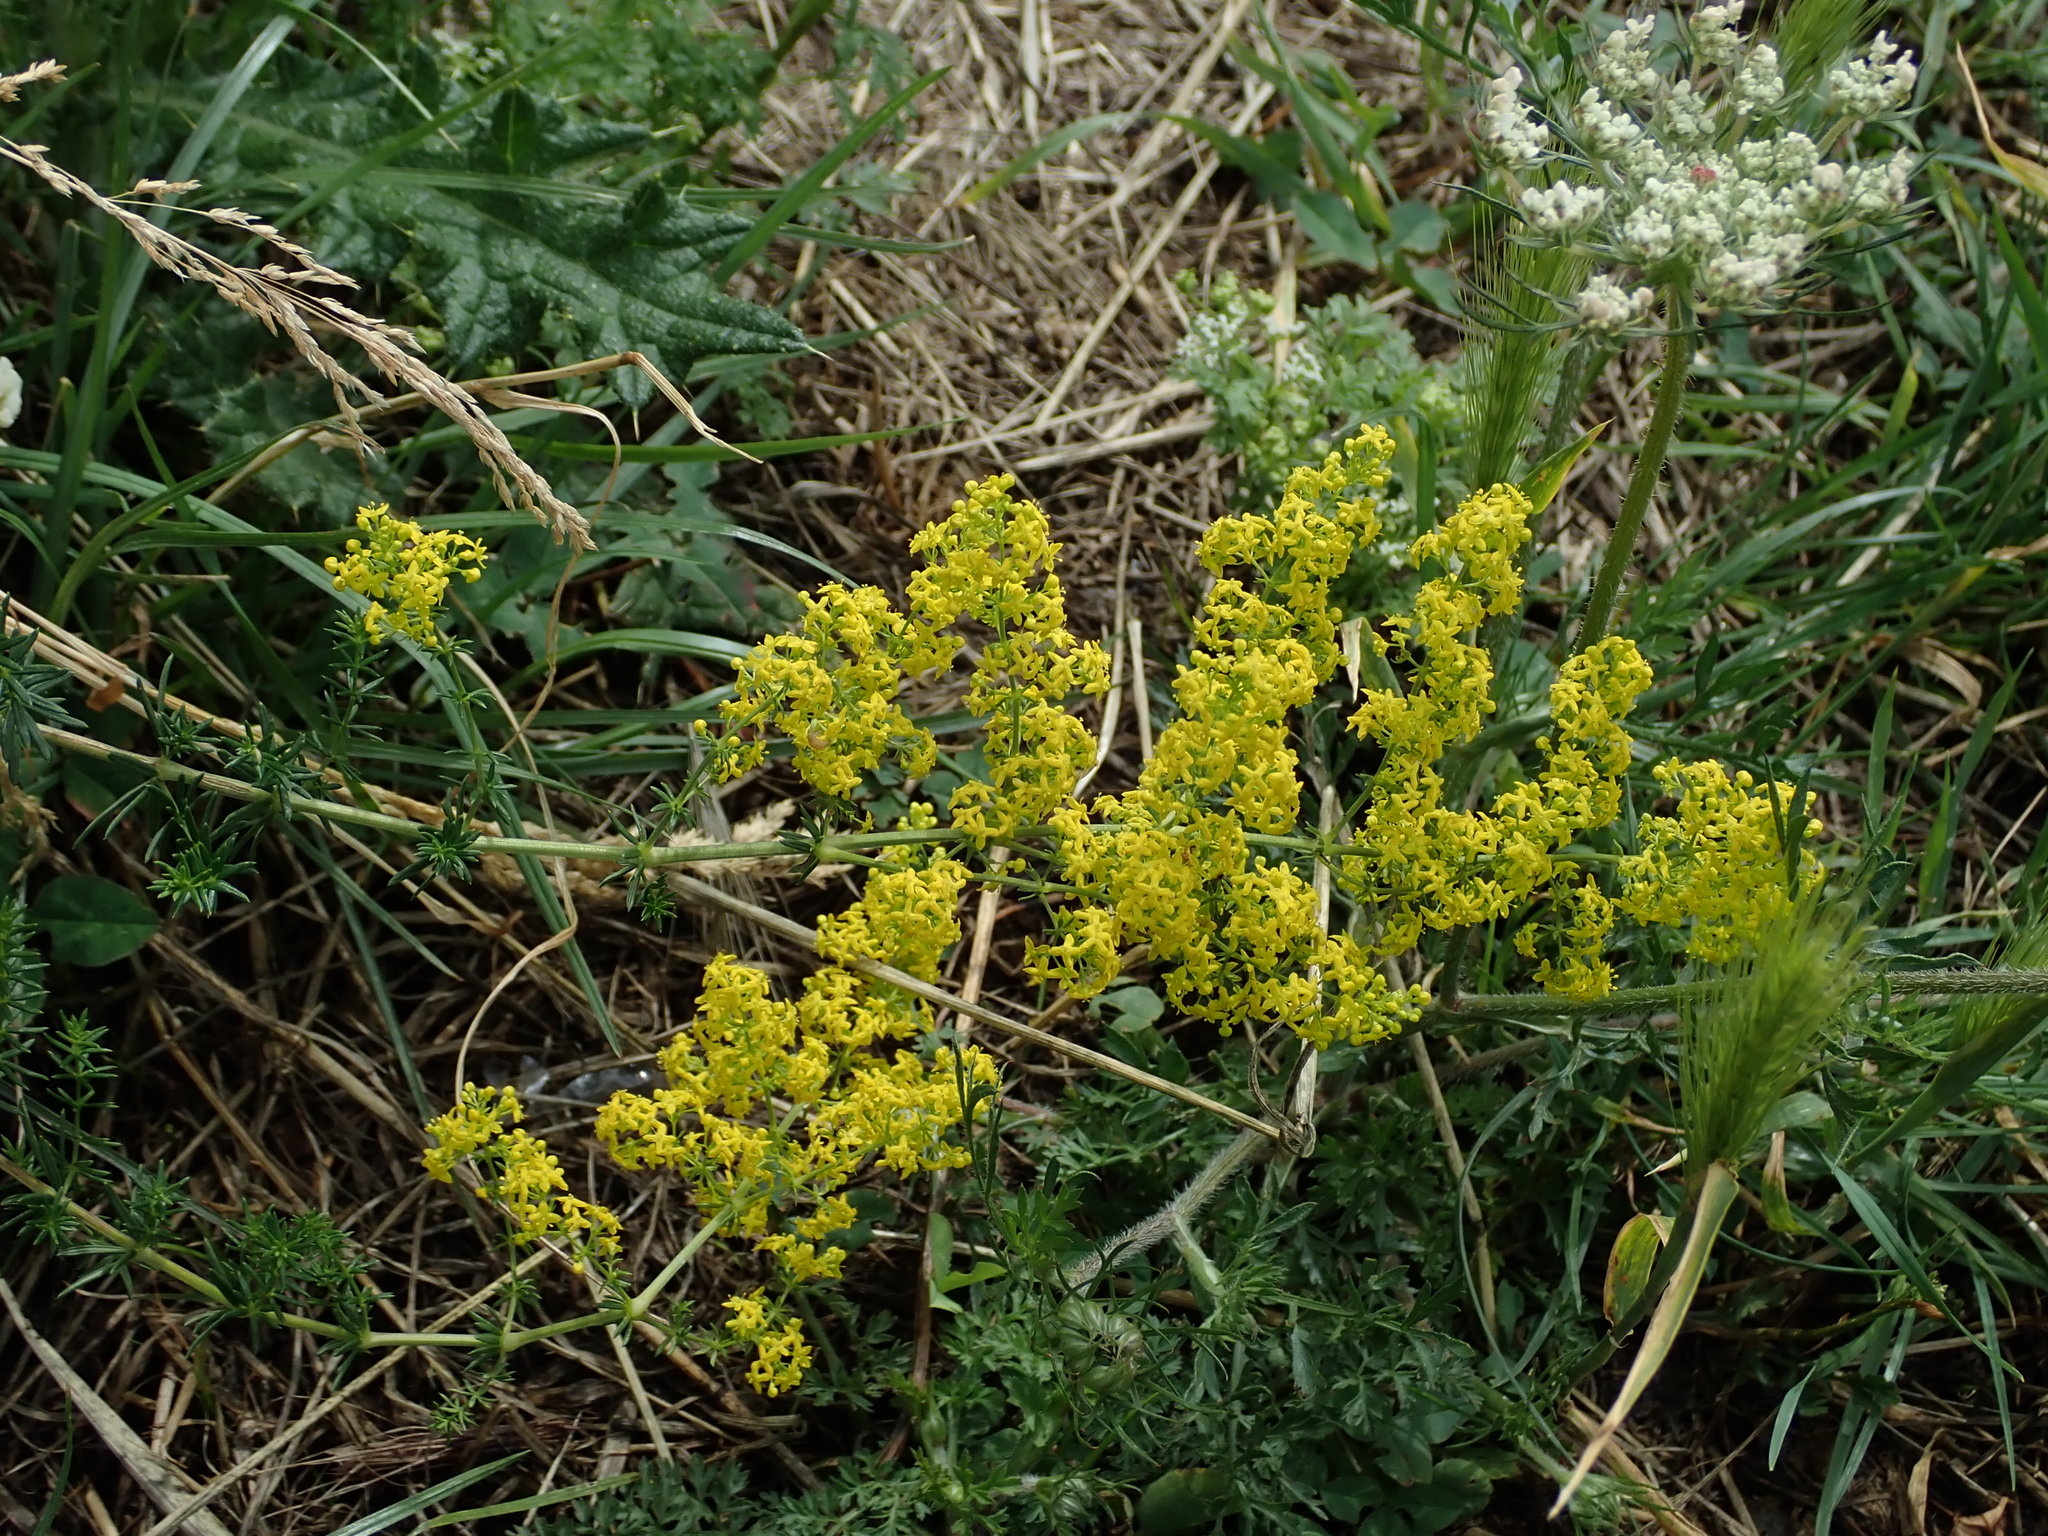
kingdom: Plantae
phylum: Tracheophyta
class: Magnoliopsida
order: Gentianales
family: Rubiaceae
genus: Galium
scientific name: Galium verum
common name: Lady's bedstraw
